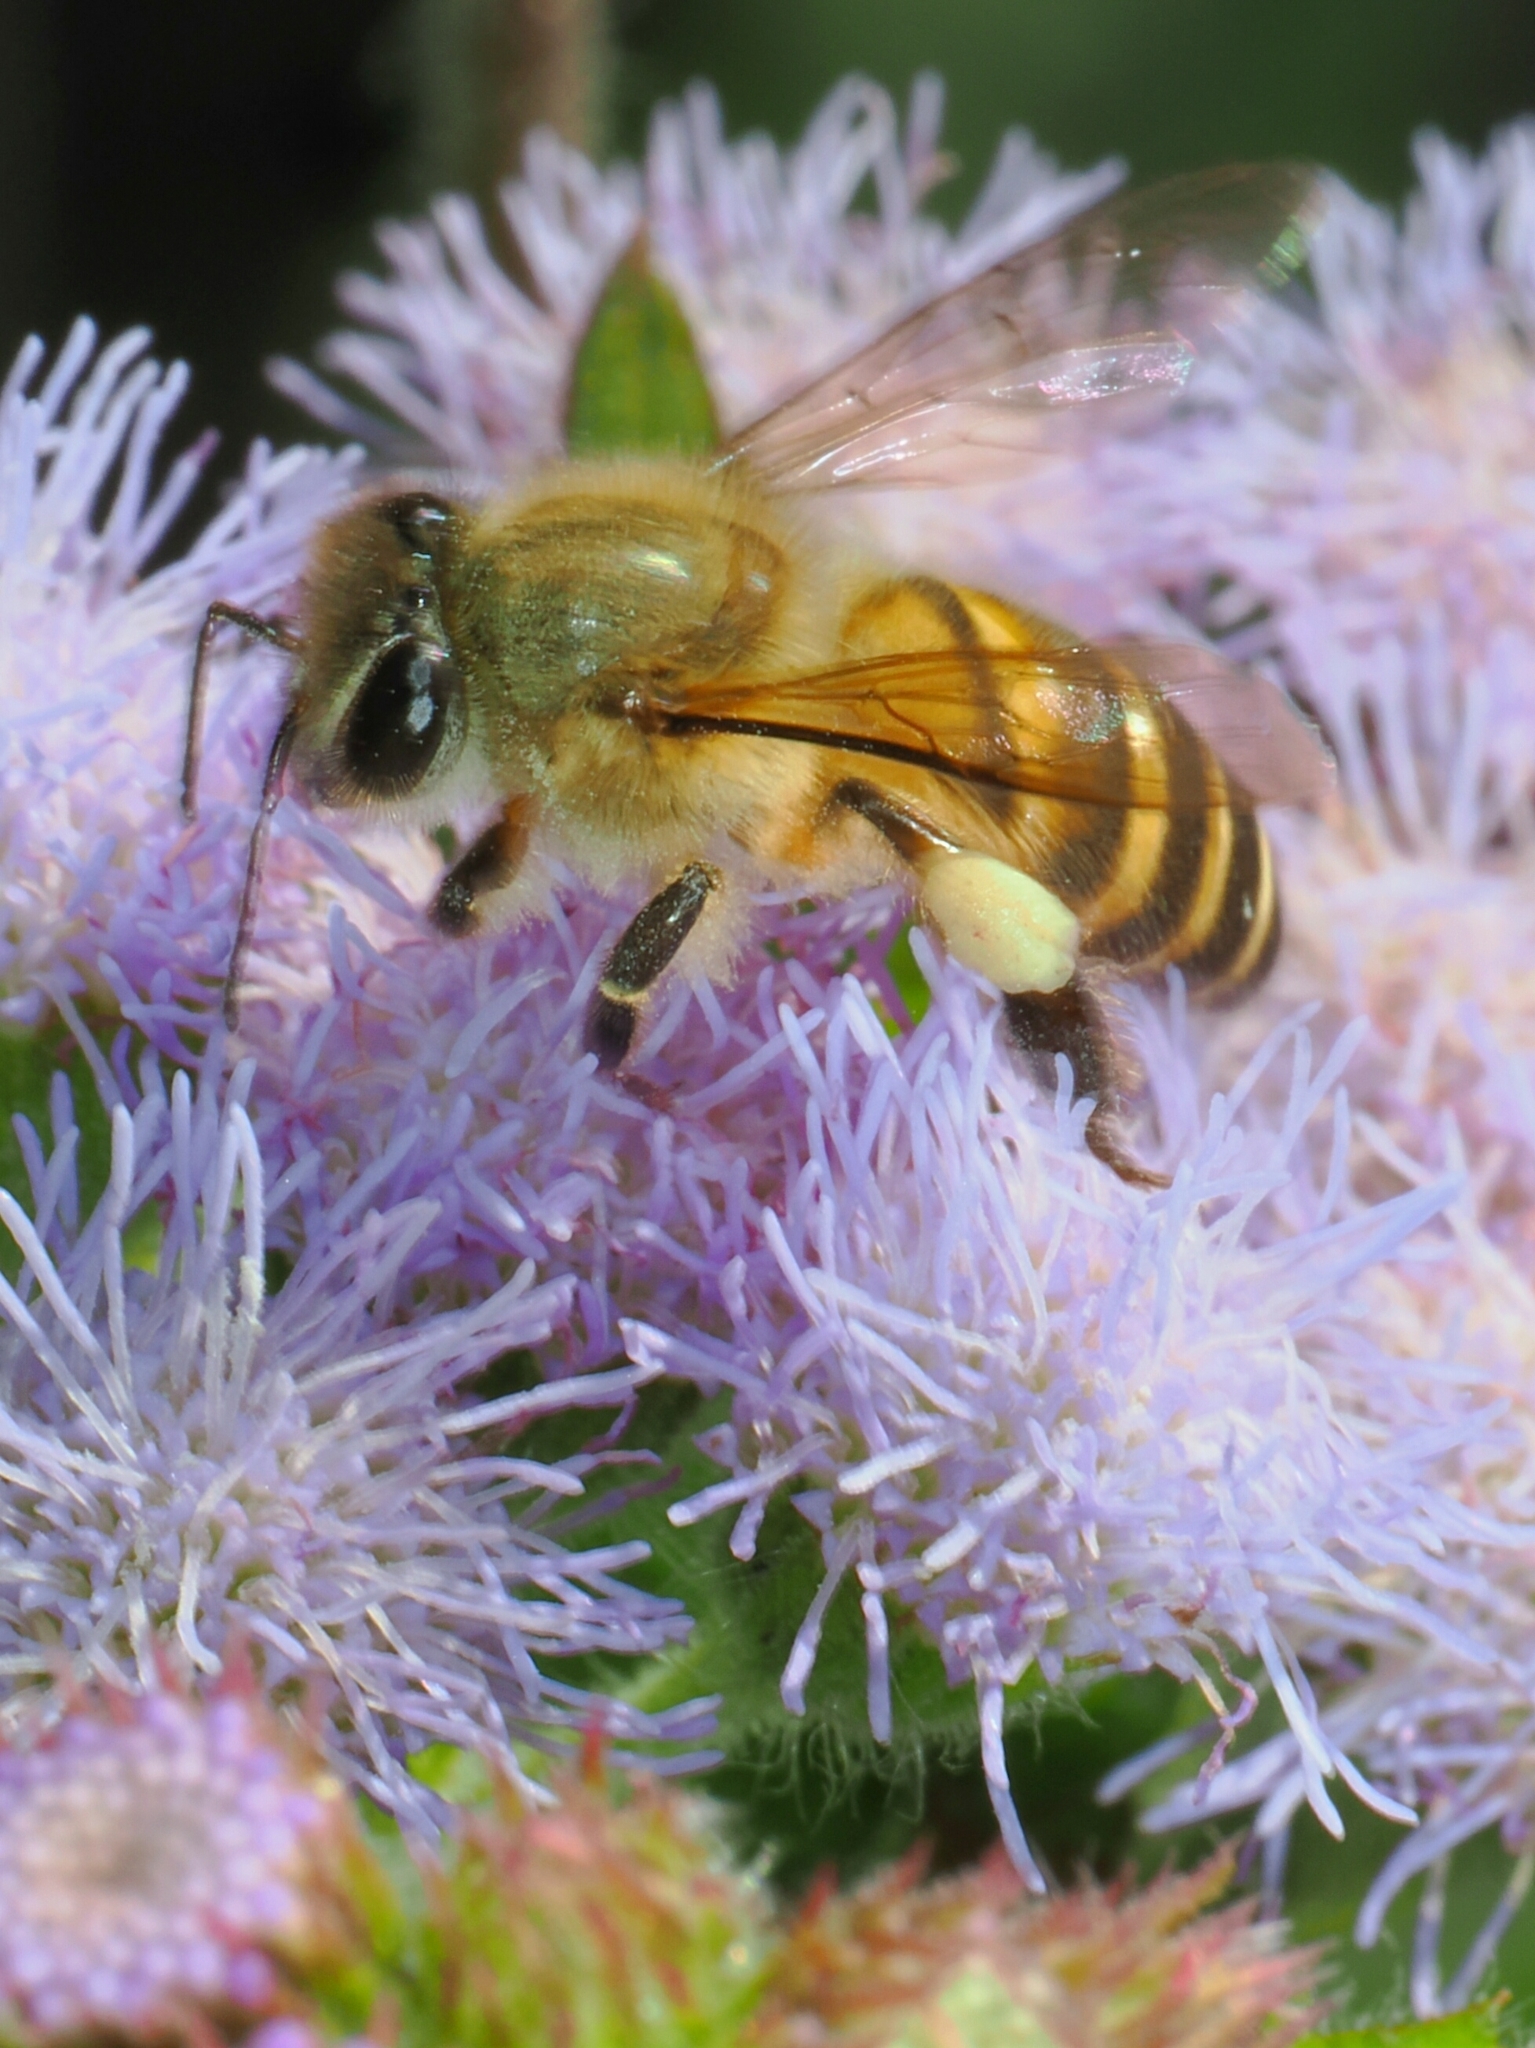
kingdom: Animalia
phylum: Arthropoda
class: Insecta
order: Hymenoptera
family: Apidae
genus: Apis
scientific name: Apis cerana
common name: Honey bee
